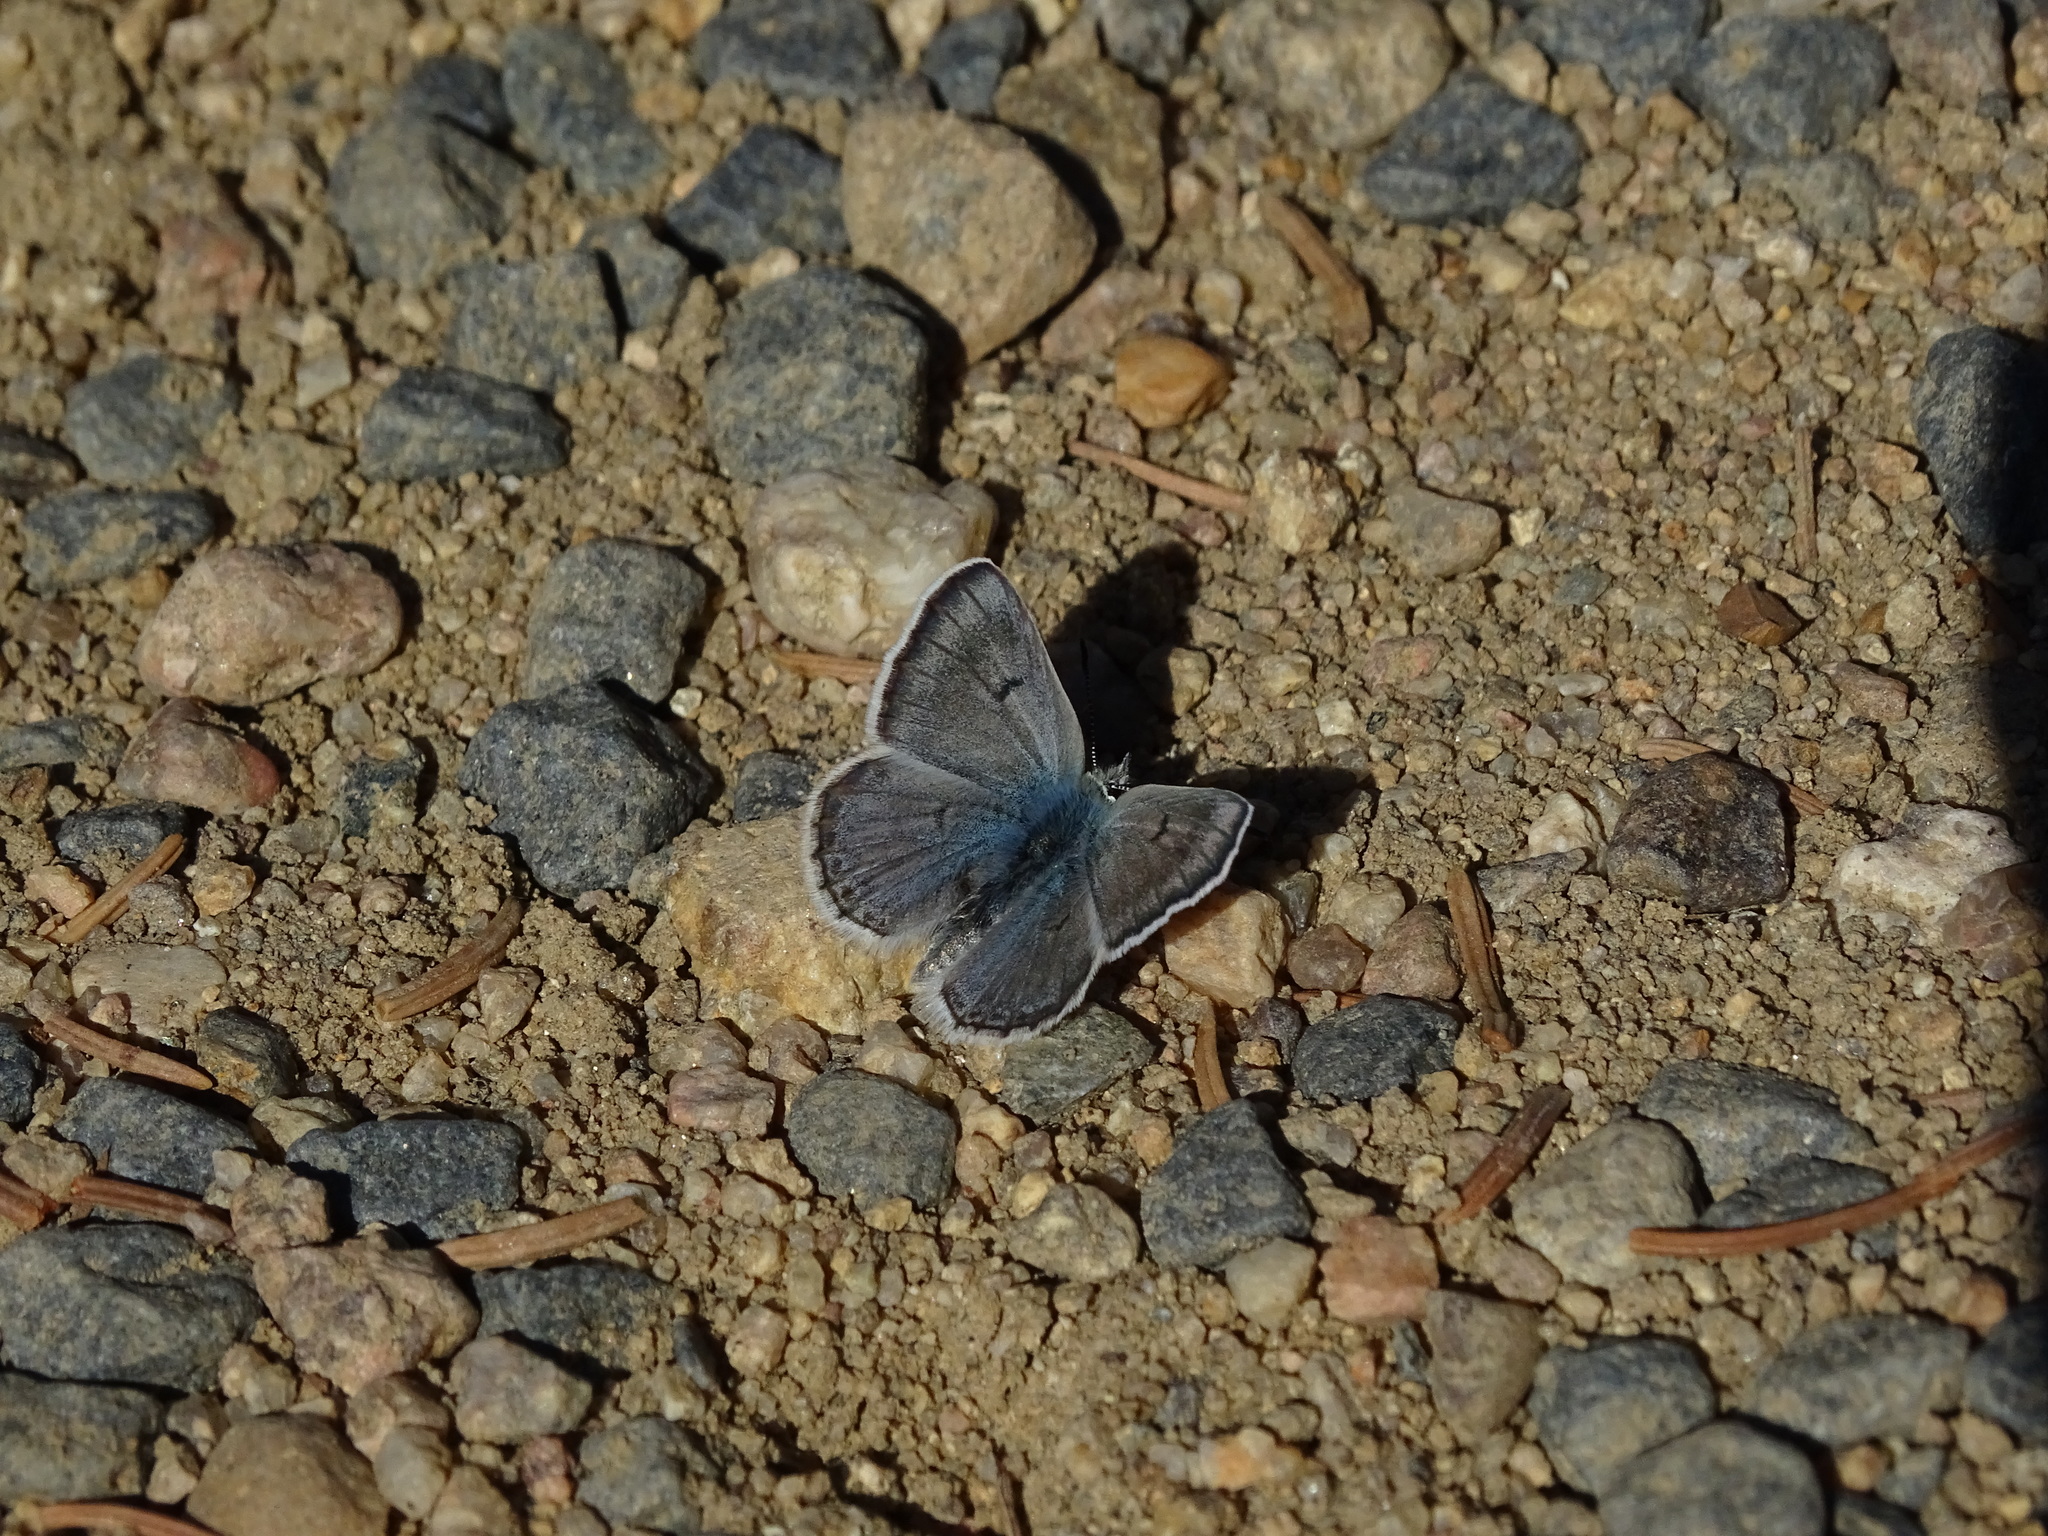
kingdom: Animalia
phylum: Arthropoda
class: Insecta
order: Lepidoptera
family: Lycaenidae
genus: Agriades
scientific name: Agriades glandon
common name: Glandon blue
